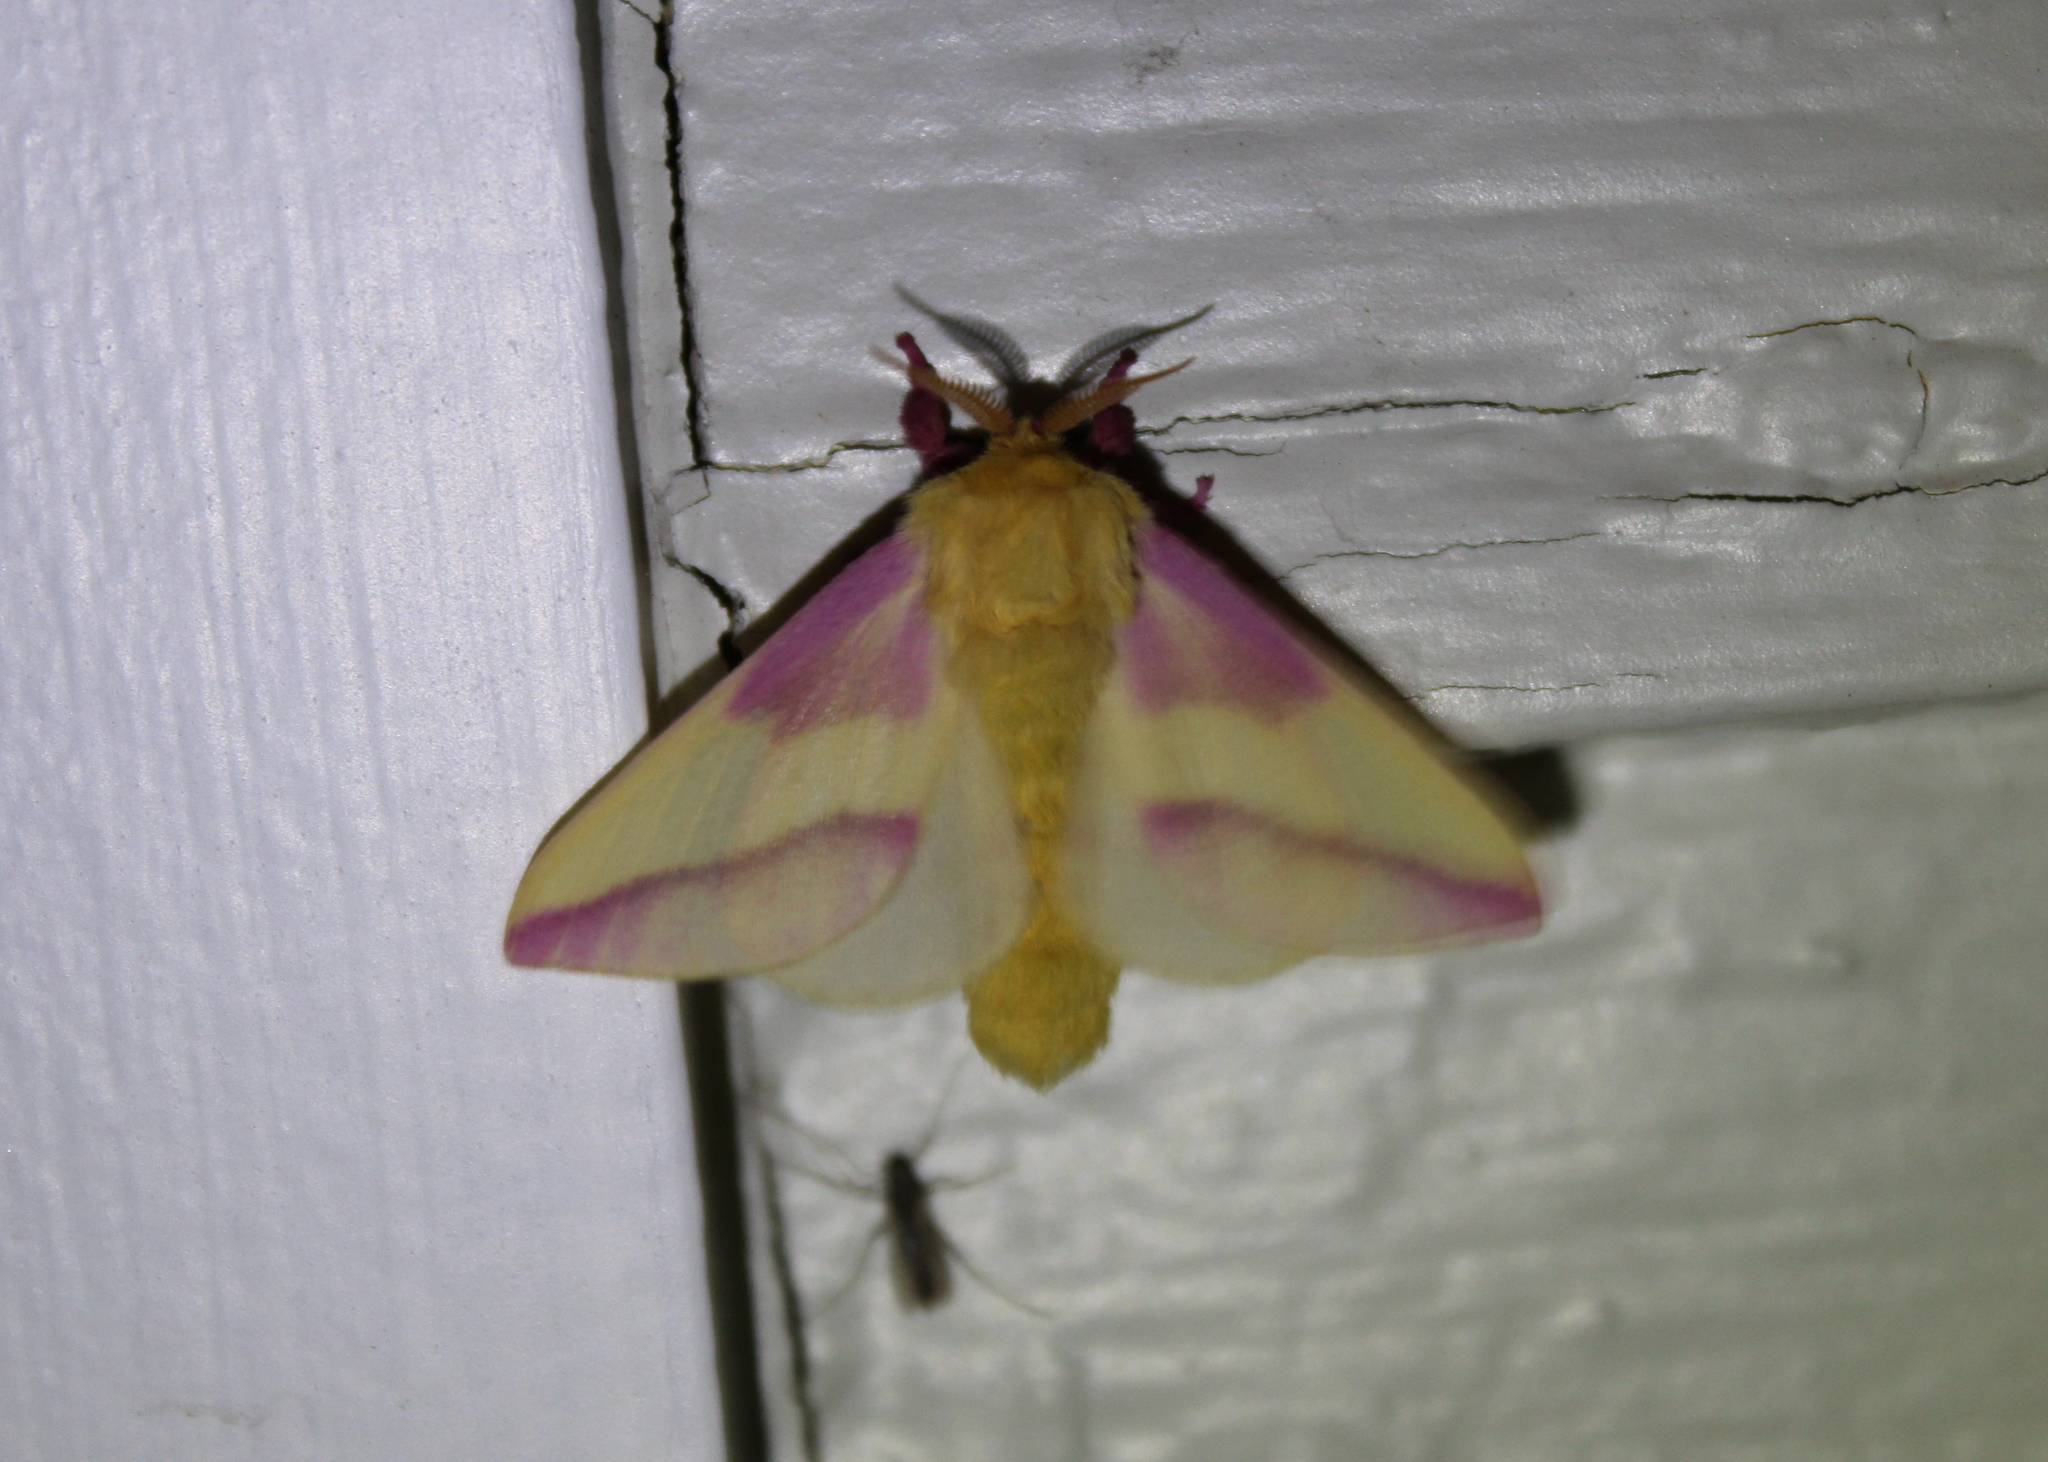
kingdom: Animalia
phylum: Arthropoda
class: Insecta
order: Lepidoptera
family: Saturniidae
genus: Dryocampa
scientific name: Dryocampa rubicunda
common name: Rosy maple moth
